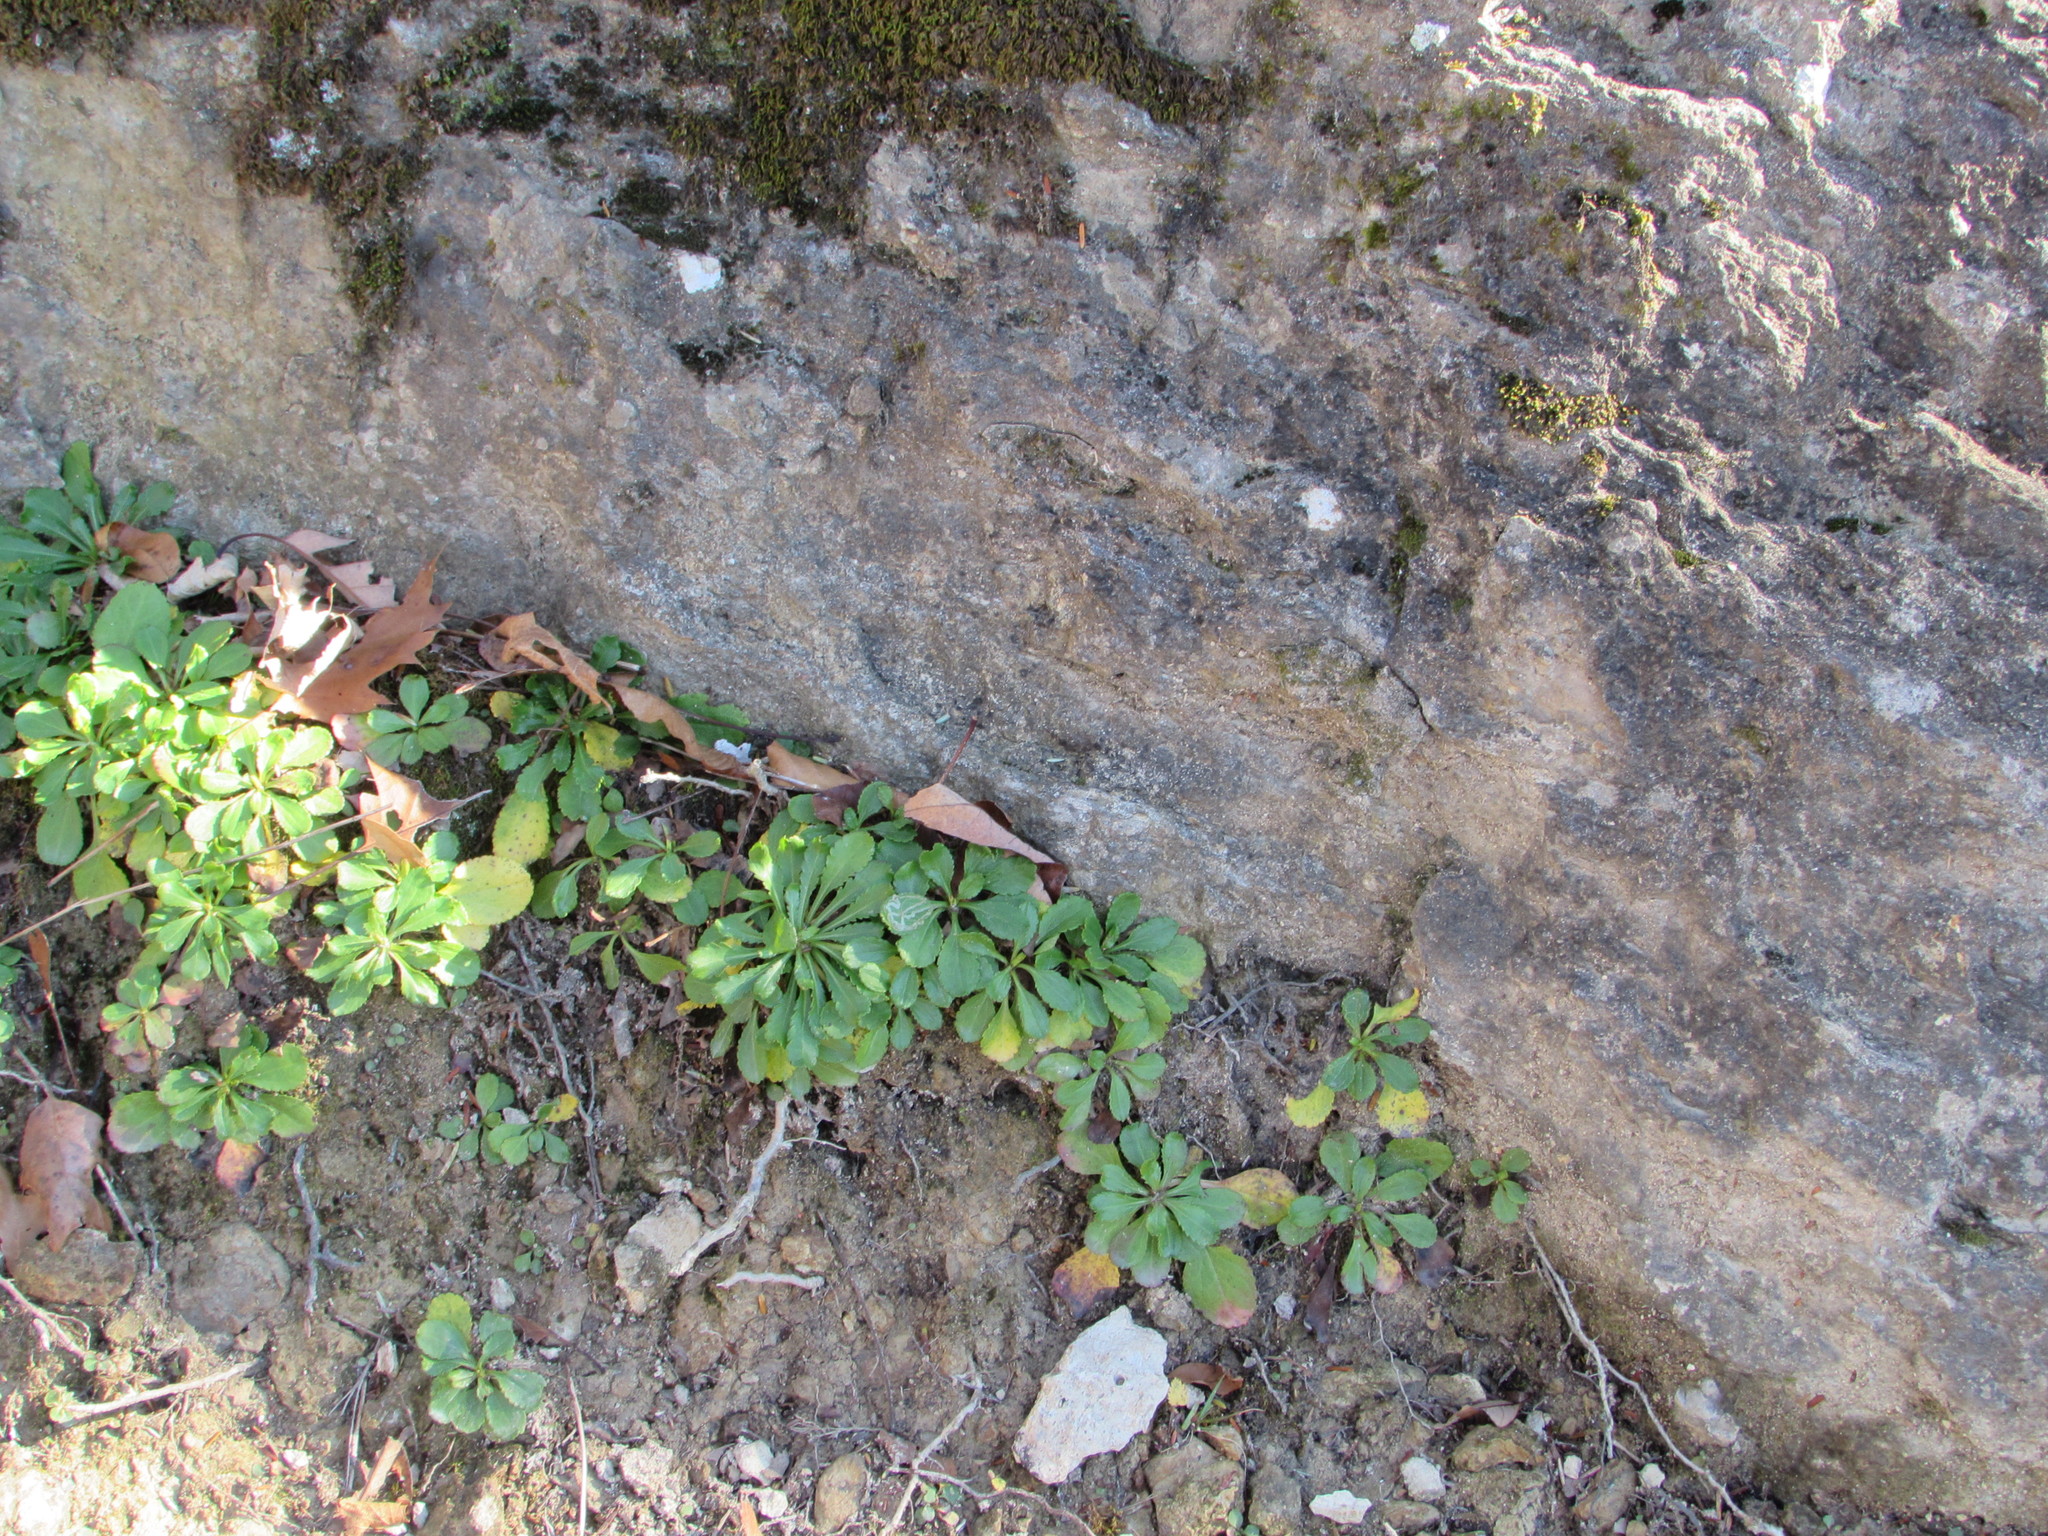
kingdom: Plantae
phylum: Tracheophyta
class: Magnoliopsida
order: Saxifragales
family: Saxifragaceae
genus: Micranthes
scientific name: Micranthes virginiensis
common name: Early saxifrage
